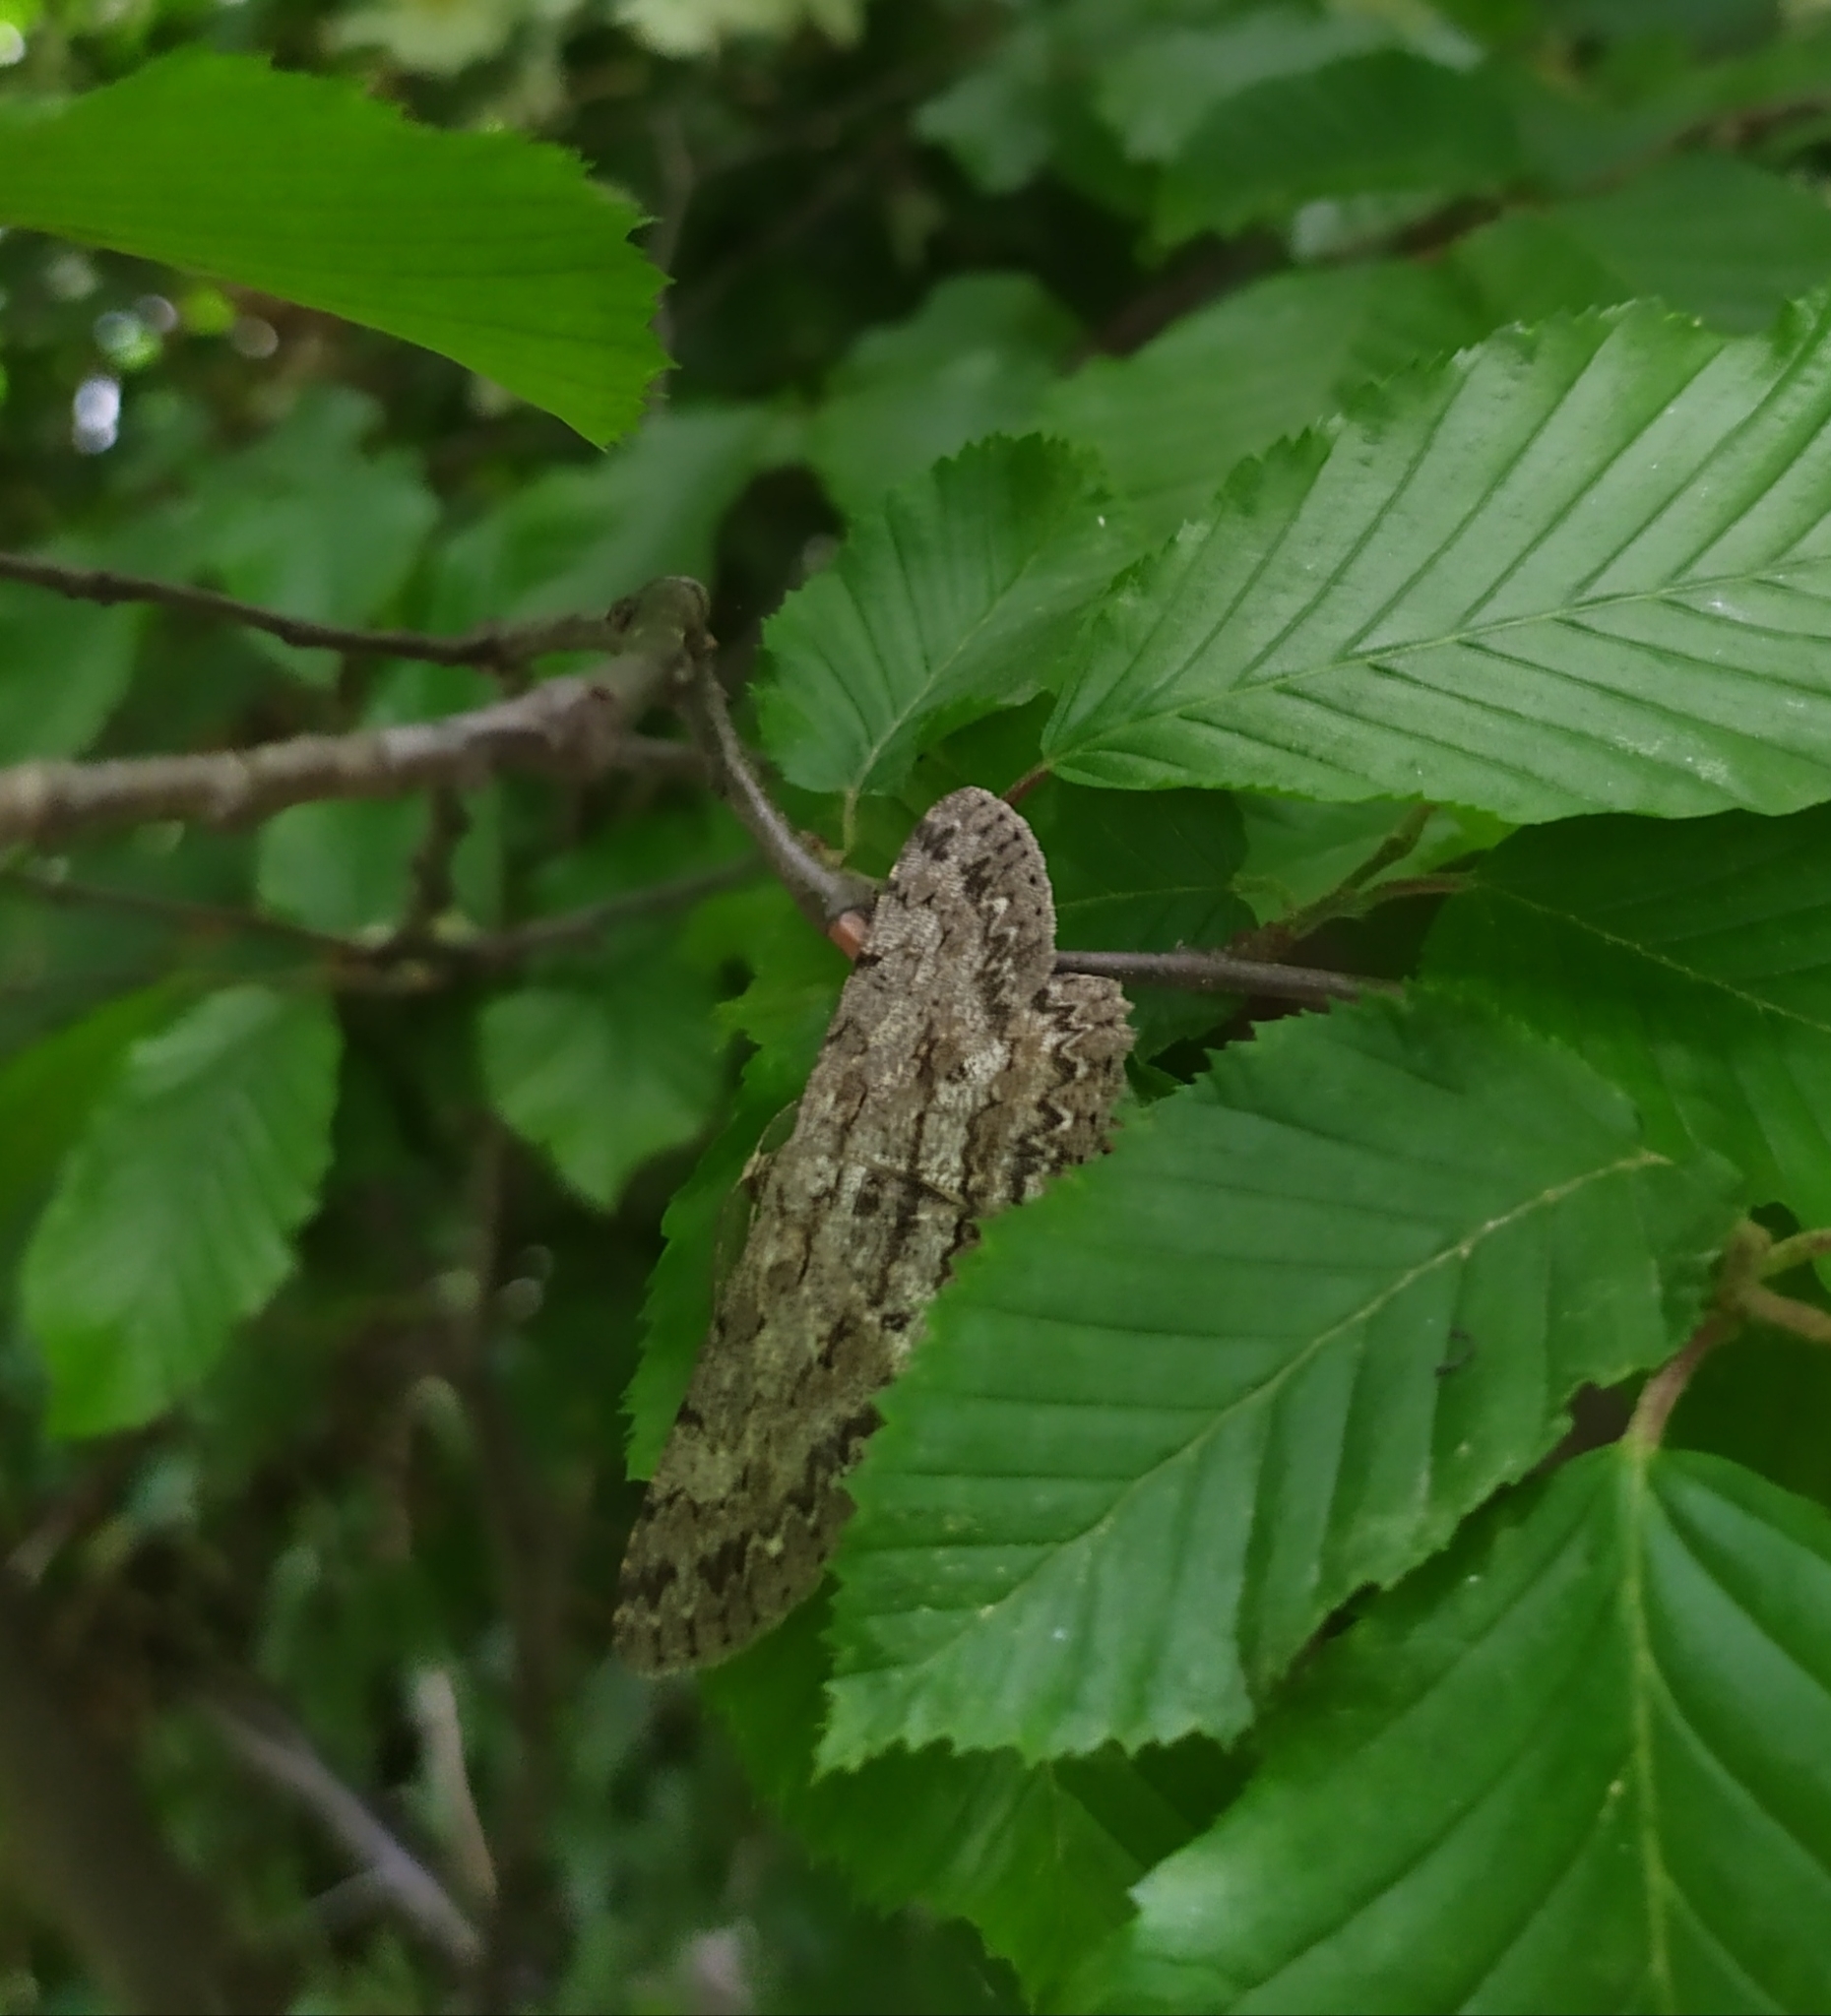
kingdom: Animalia
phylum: Arthropoda
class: Insecta
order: Lepidoptera
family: Geometridae
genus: Hypomecis
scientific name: Hypomecis punctinalis
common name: Pale oak beauty
